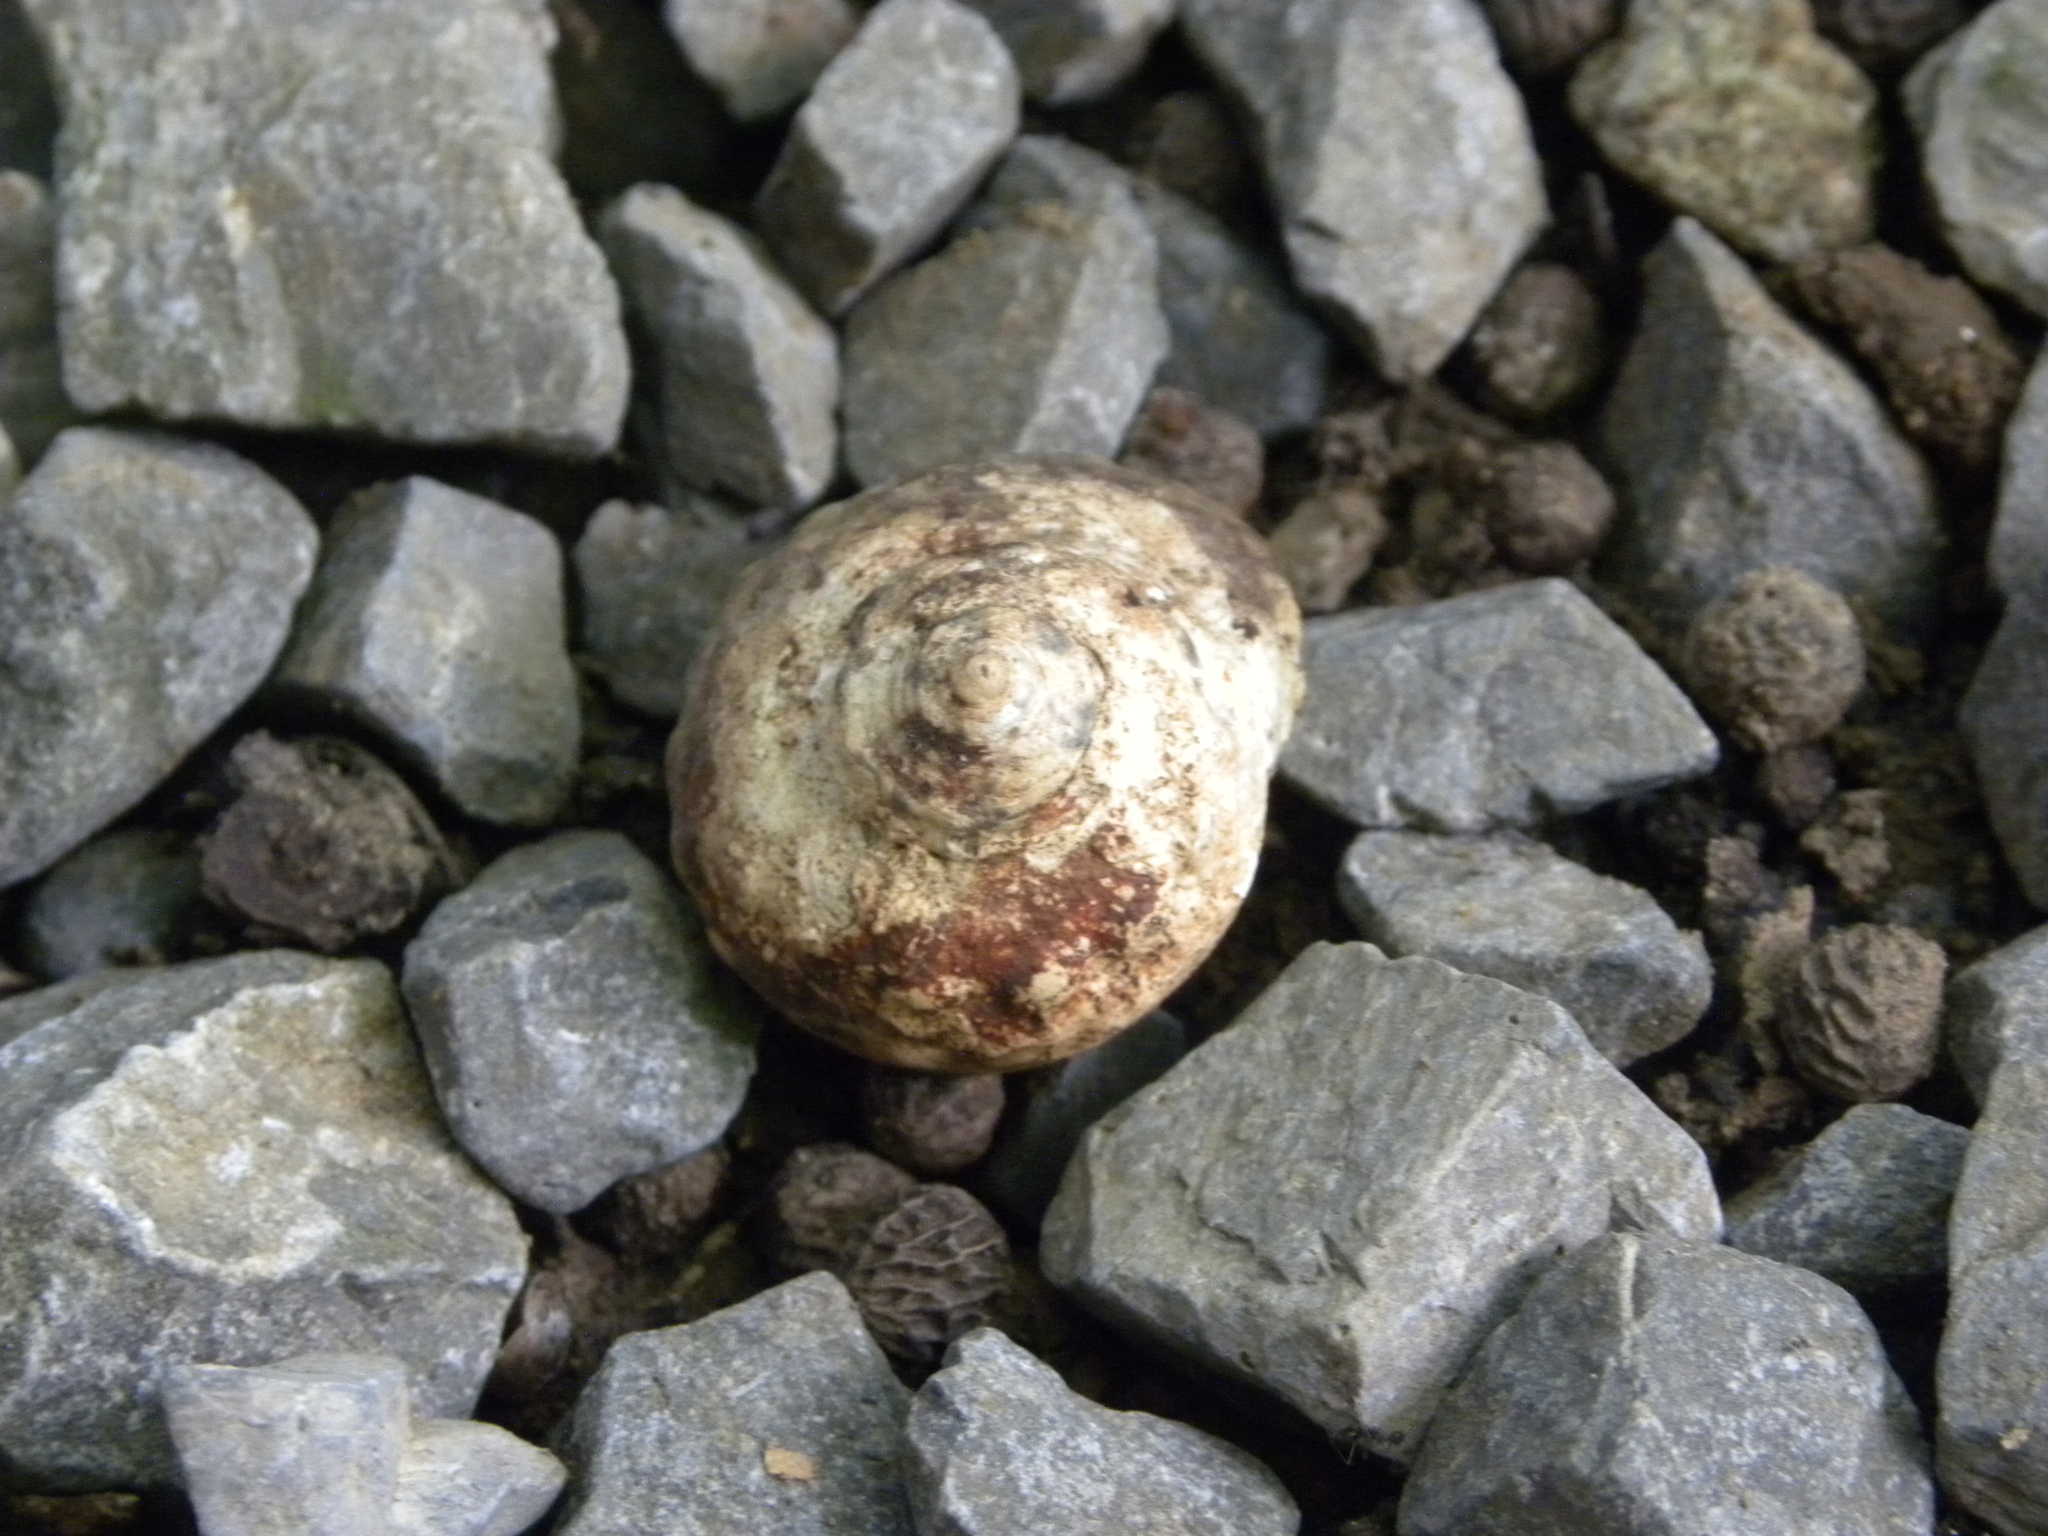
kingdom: Animalia
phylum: Arthropoda
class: Malacostraca
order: Decapoda
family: Coenobitidae
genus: Coenobita
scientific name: Coenobita clypeatus
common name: Caribbean hermit crab
